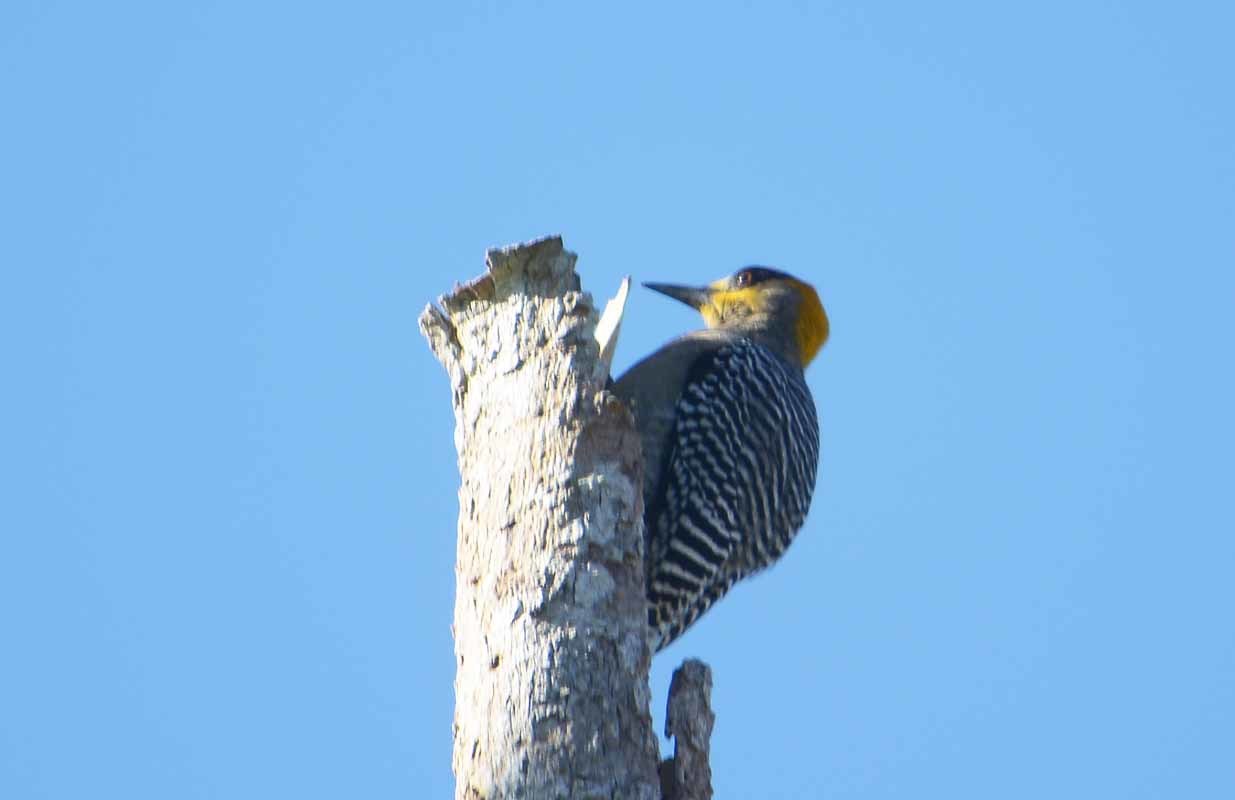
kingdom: Animalia
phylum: Chordata
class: Aves
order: Piciformes
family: Picidae
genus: Melanerpes
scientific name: Melanerpes chrysogenys
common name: Golden-cheeked woodpecker
